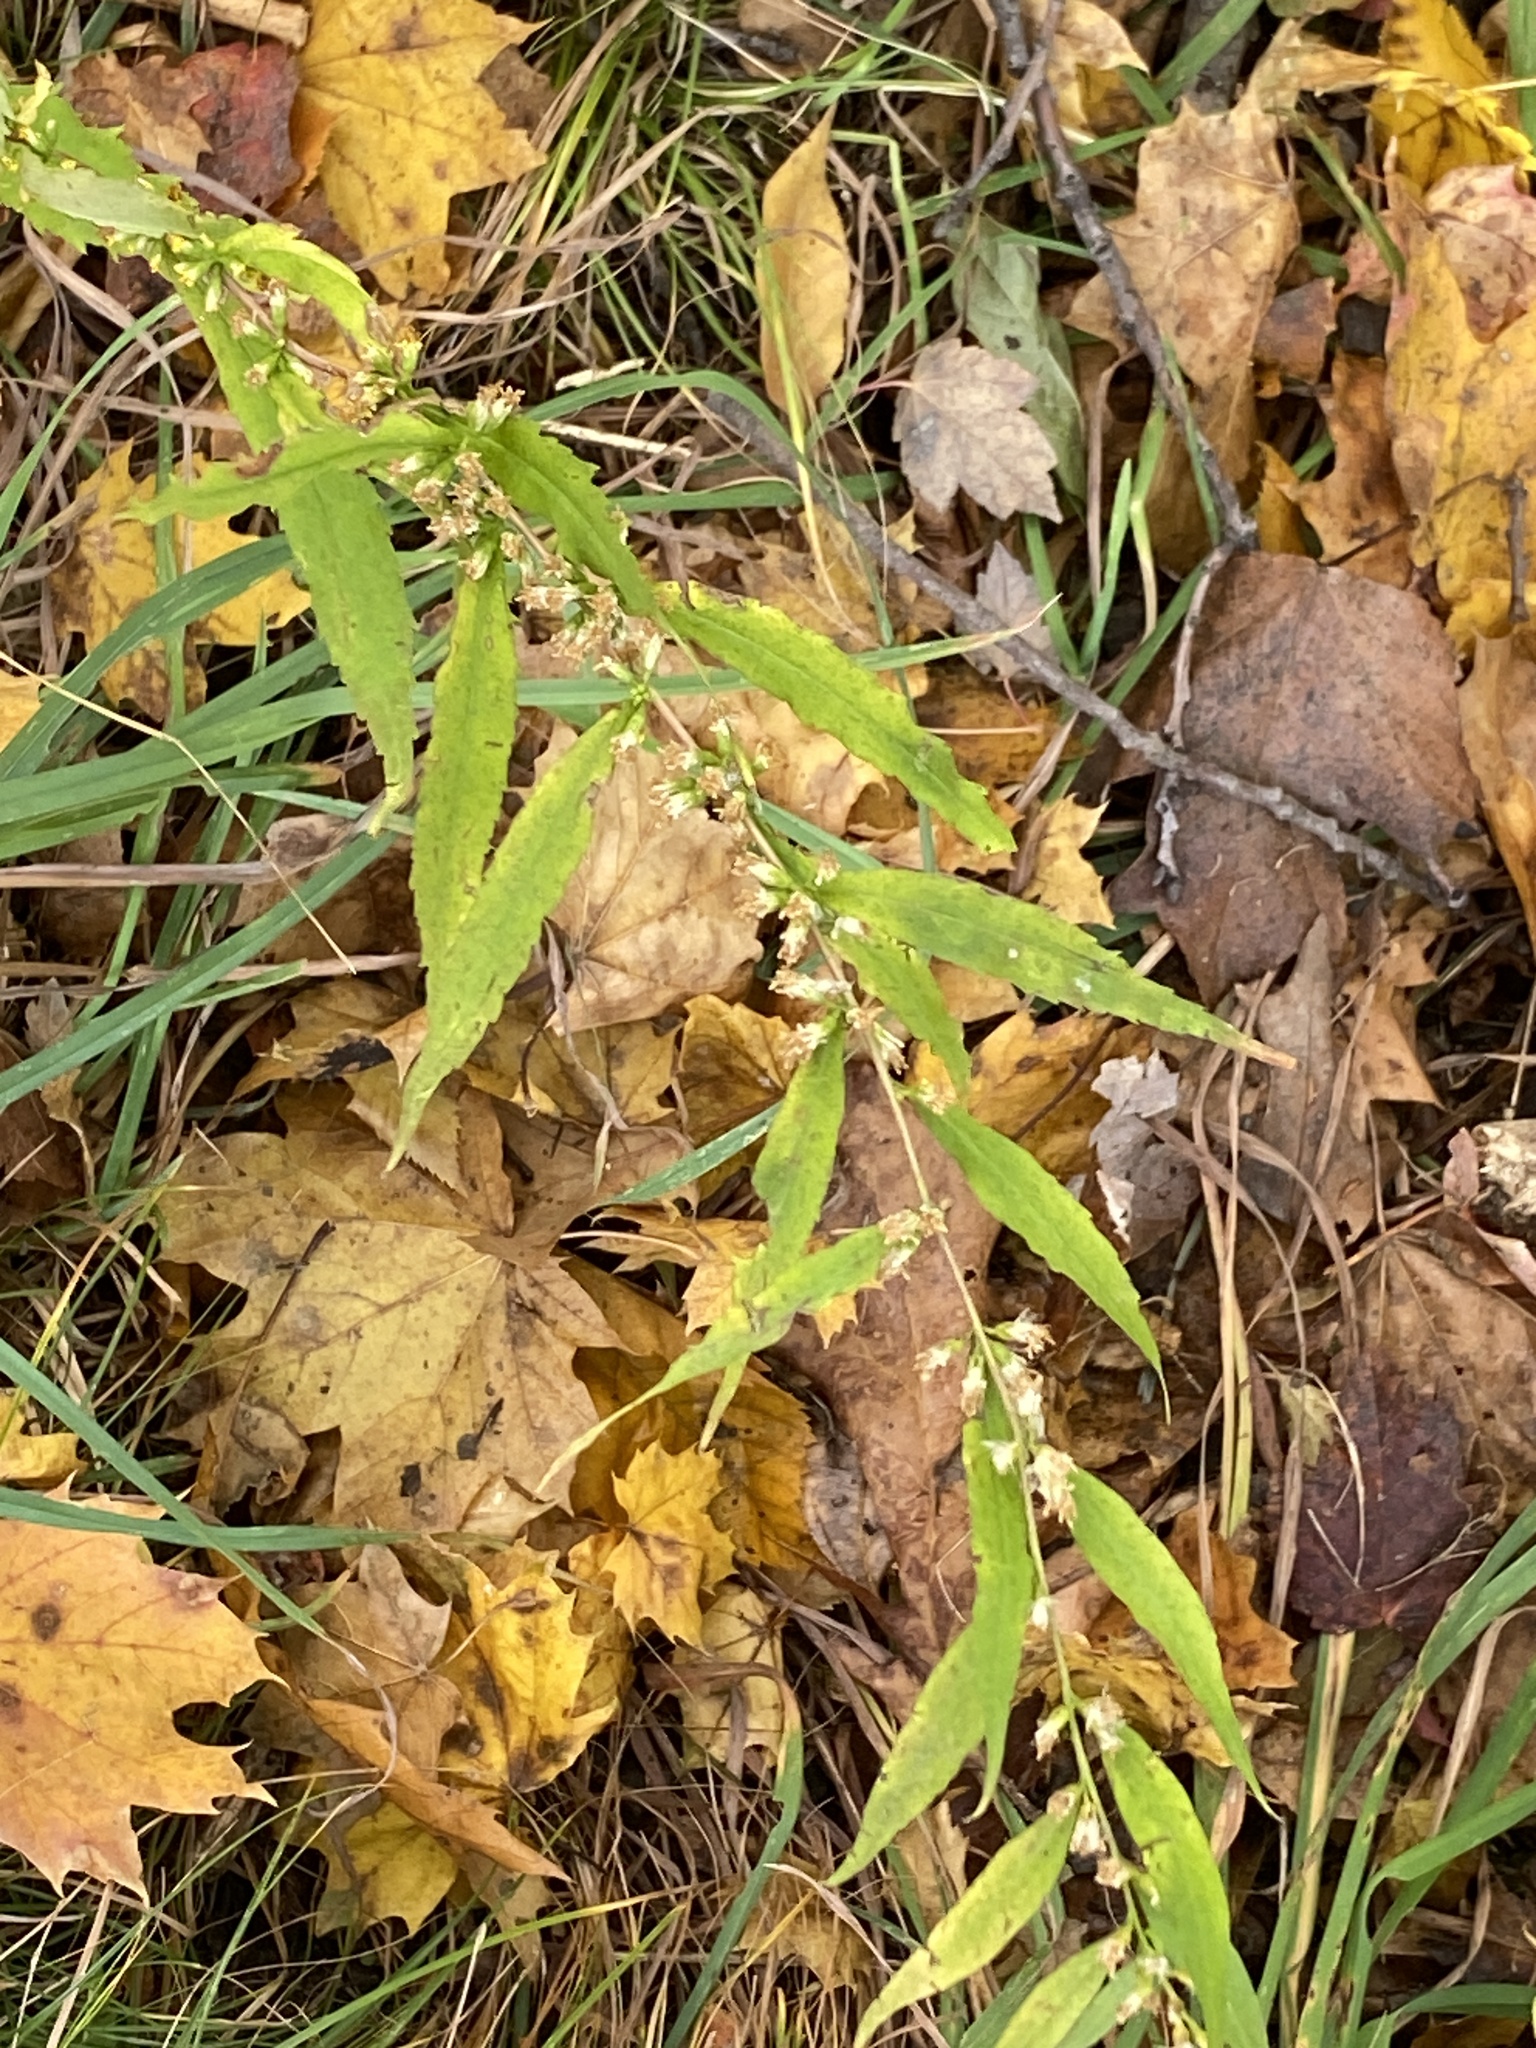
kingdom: Plantae
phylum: Tracheophyta
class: Magnoliopsida
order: Asterales
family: Asteraceae
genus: Solidago
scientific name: Solidago caesia
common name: Woodland goldenrod
